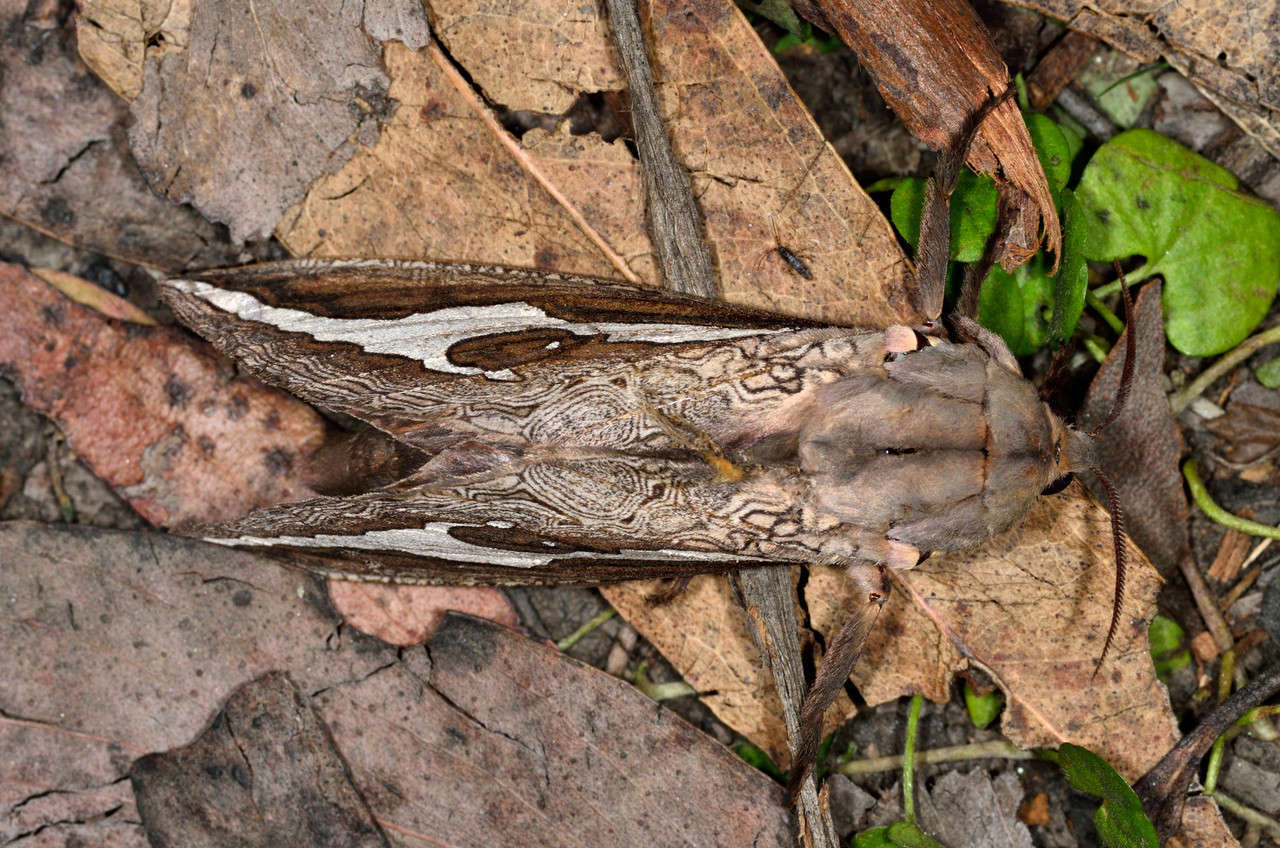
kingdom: Animalia
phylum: Arthropoda
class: Insecta
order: Lepidoptera
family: Hepialidae
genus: Abantiades
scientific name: Abantiades labyrinthicus
